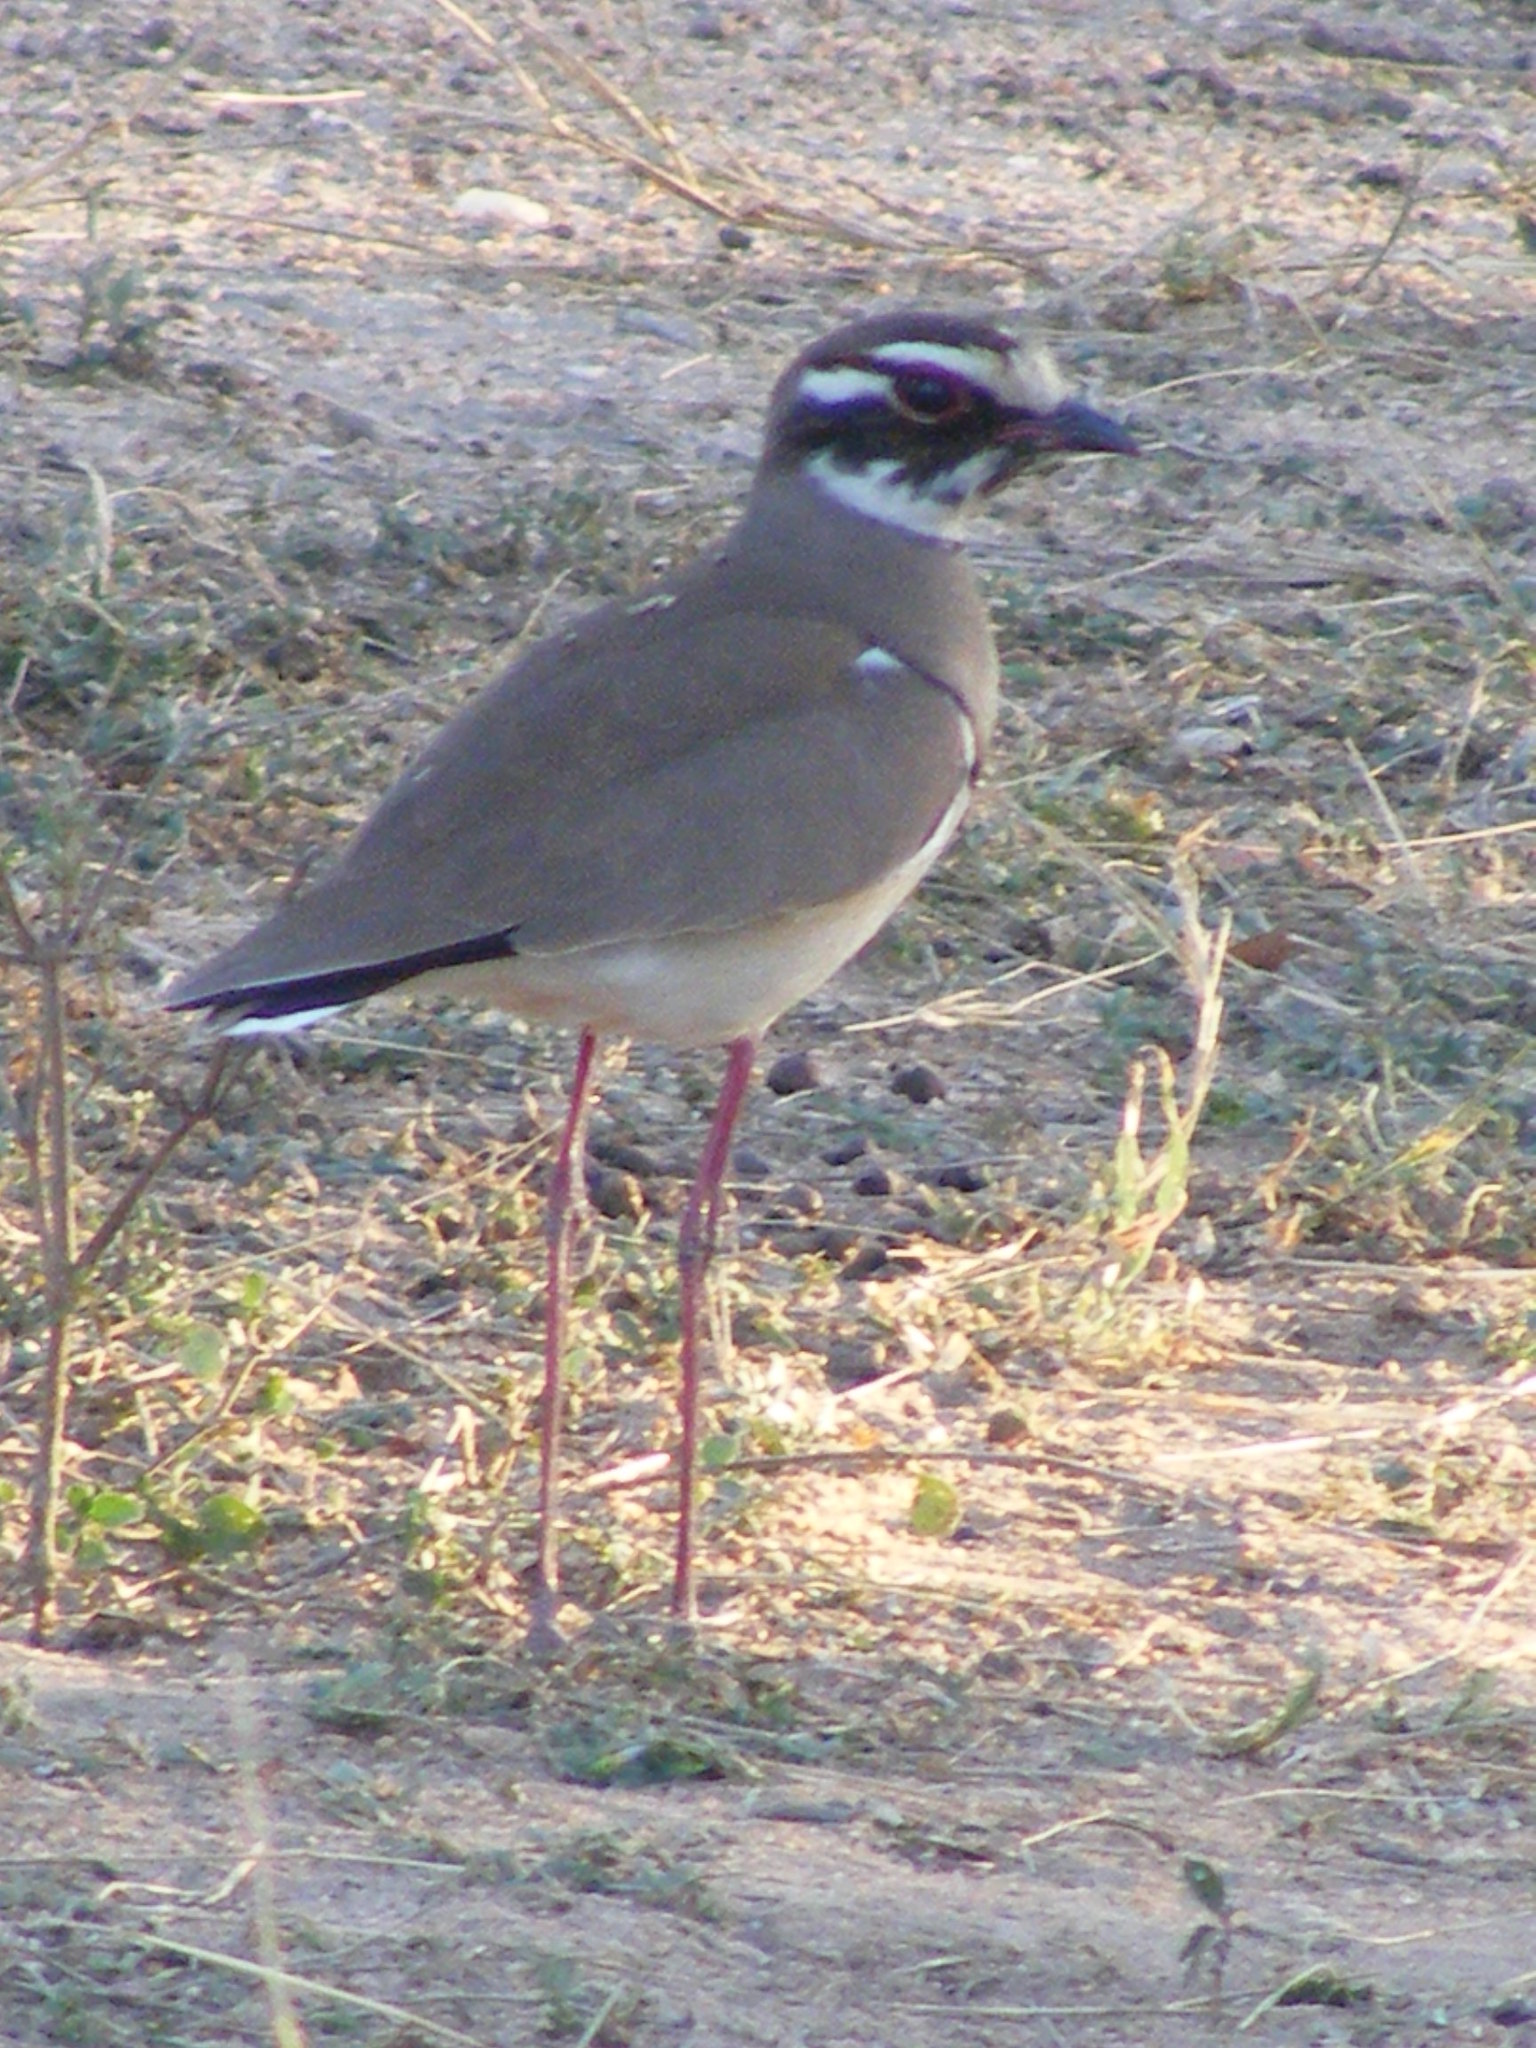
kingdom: Animalia
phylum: Chordata
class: Aves
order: Charadriiformes
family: Glareolidae
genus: Rhinoptilus
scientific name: Rhinoptilus chalcopterus
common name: Bronze-winged courser
